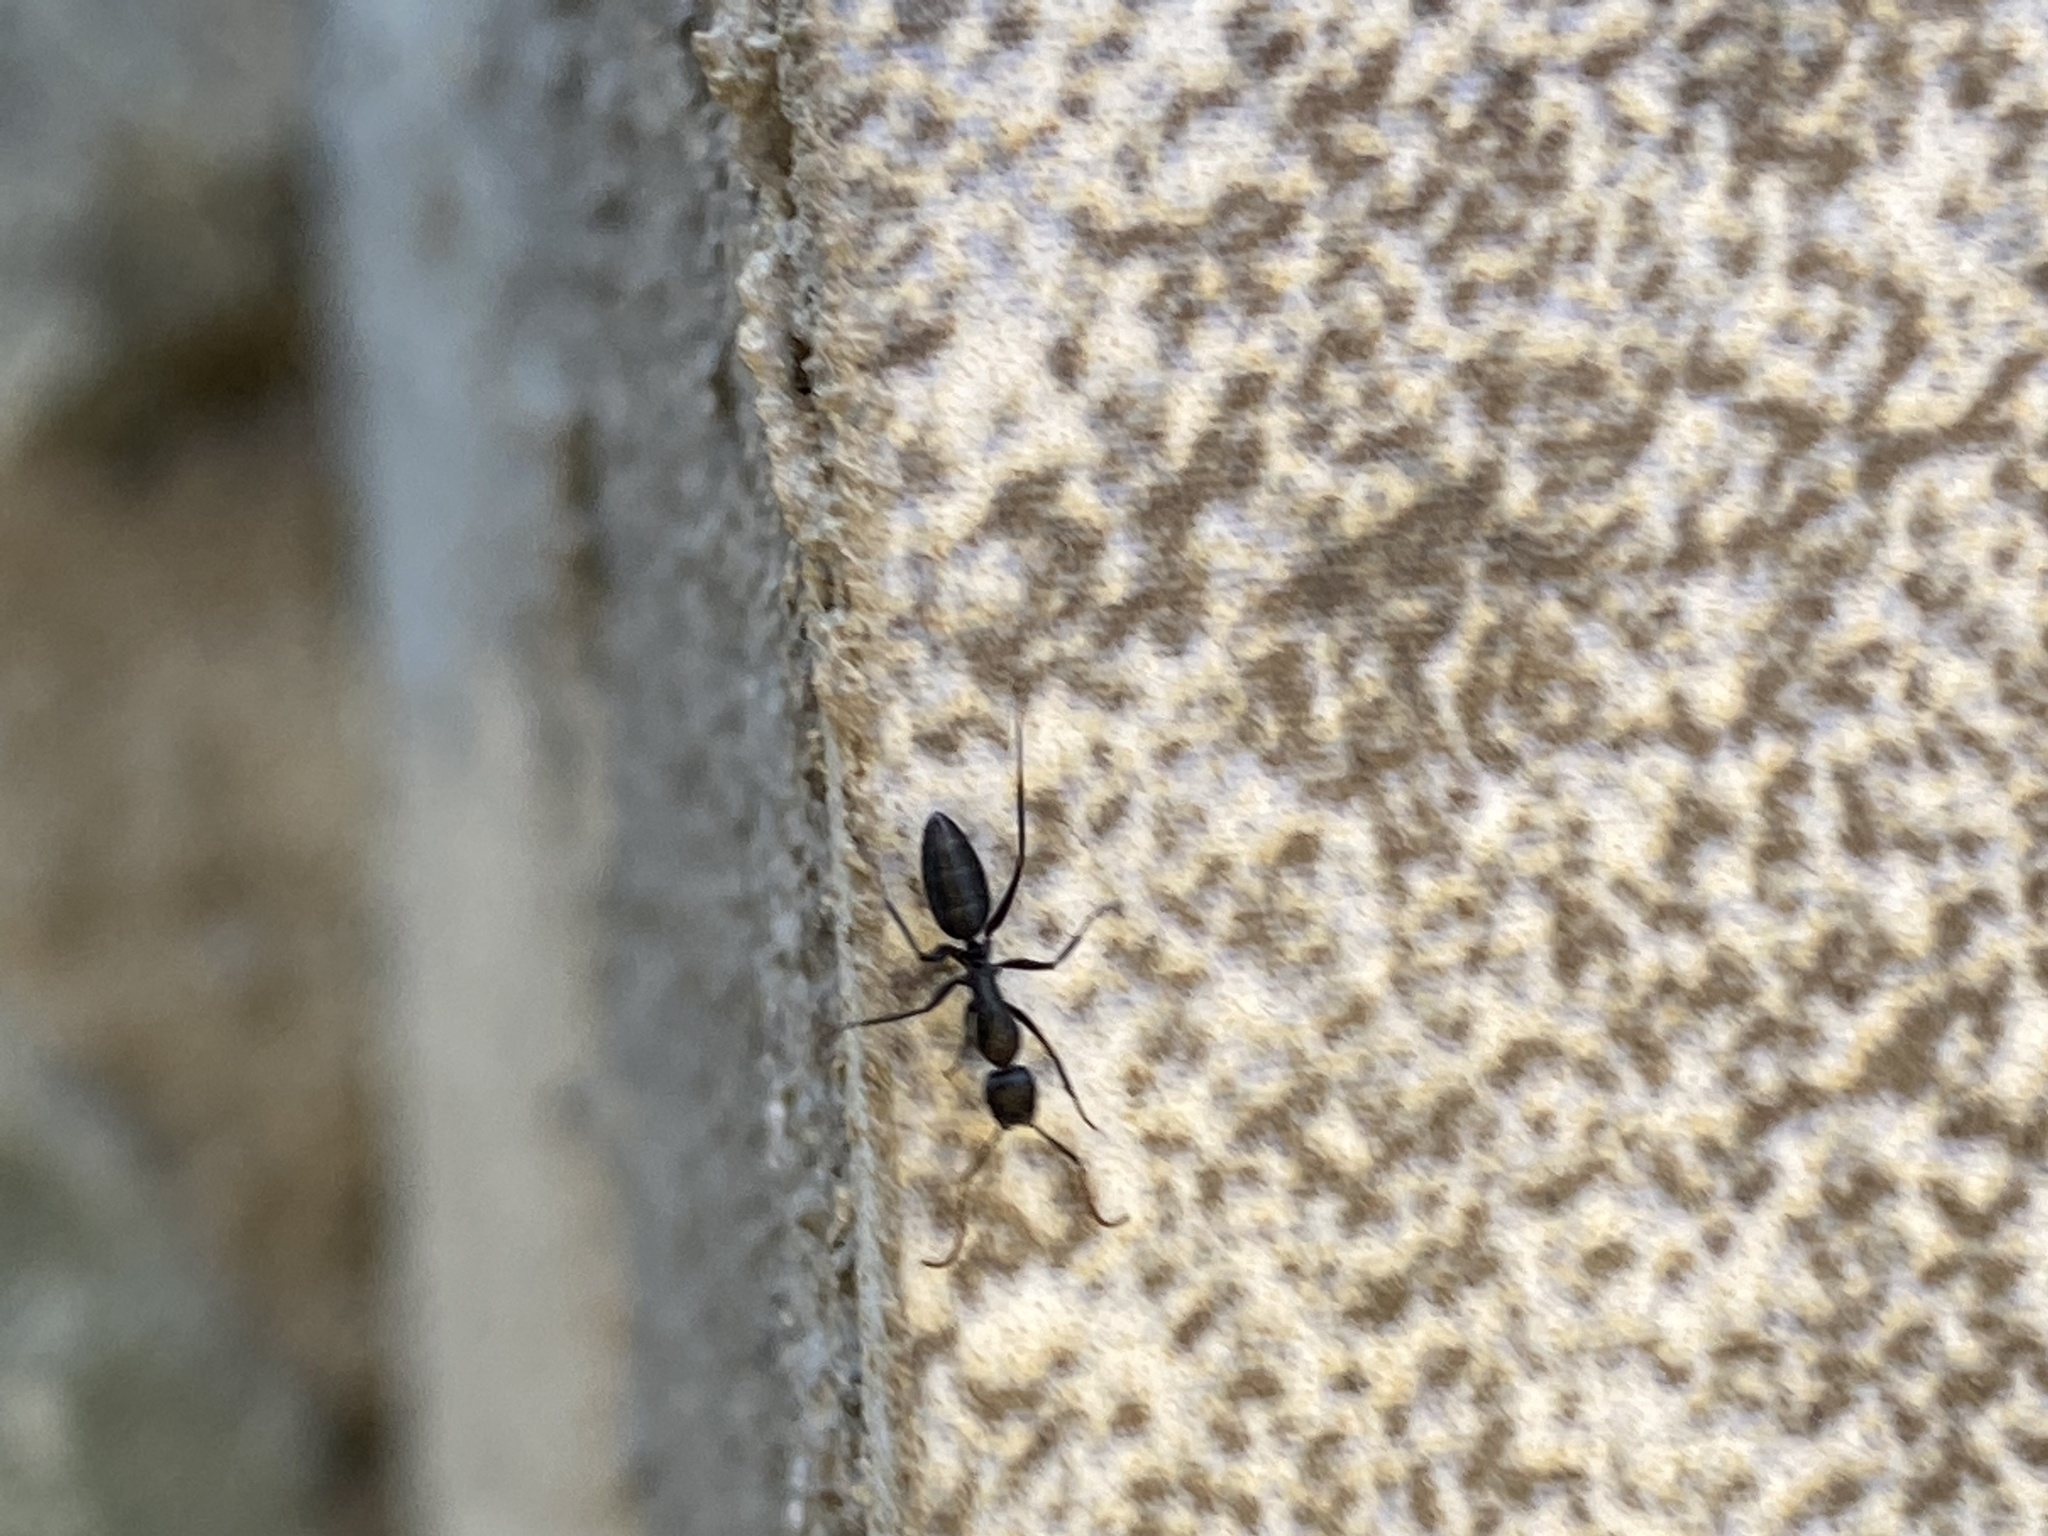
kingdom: Animalia
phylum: Arthropoda
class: Insecta
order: Hymenoptera
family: Formicidae
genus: Camponotus
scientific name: Camponotus morosus
